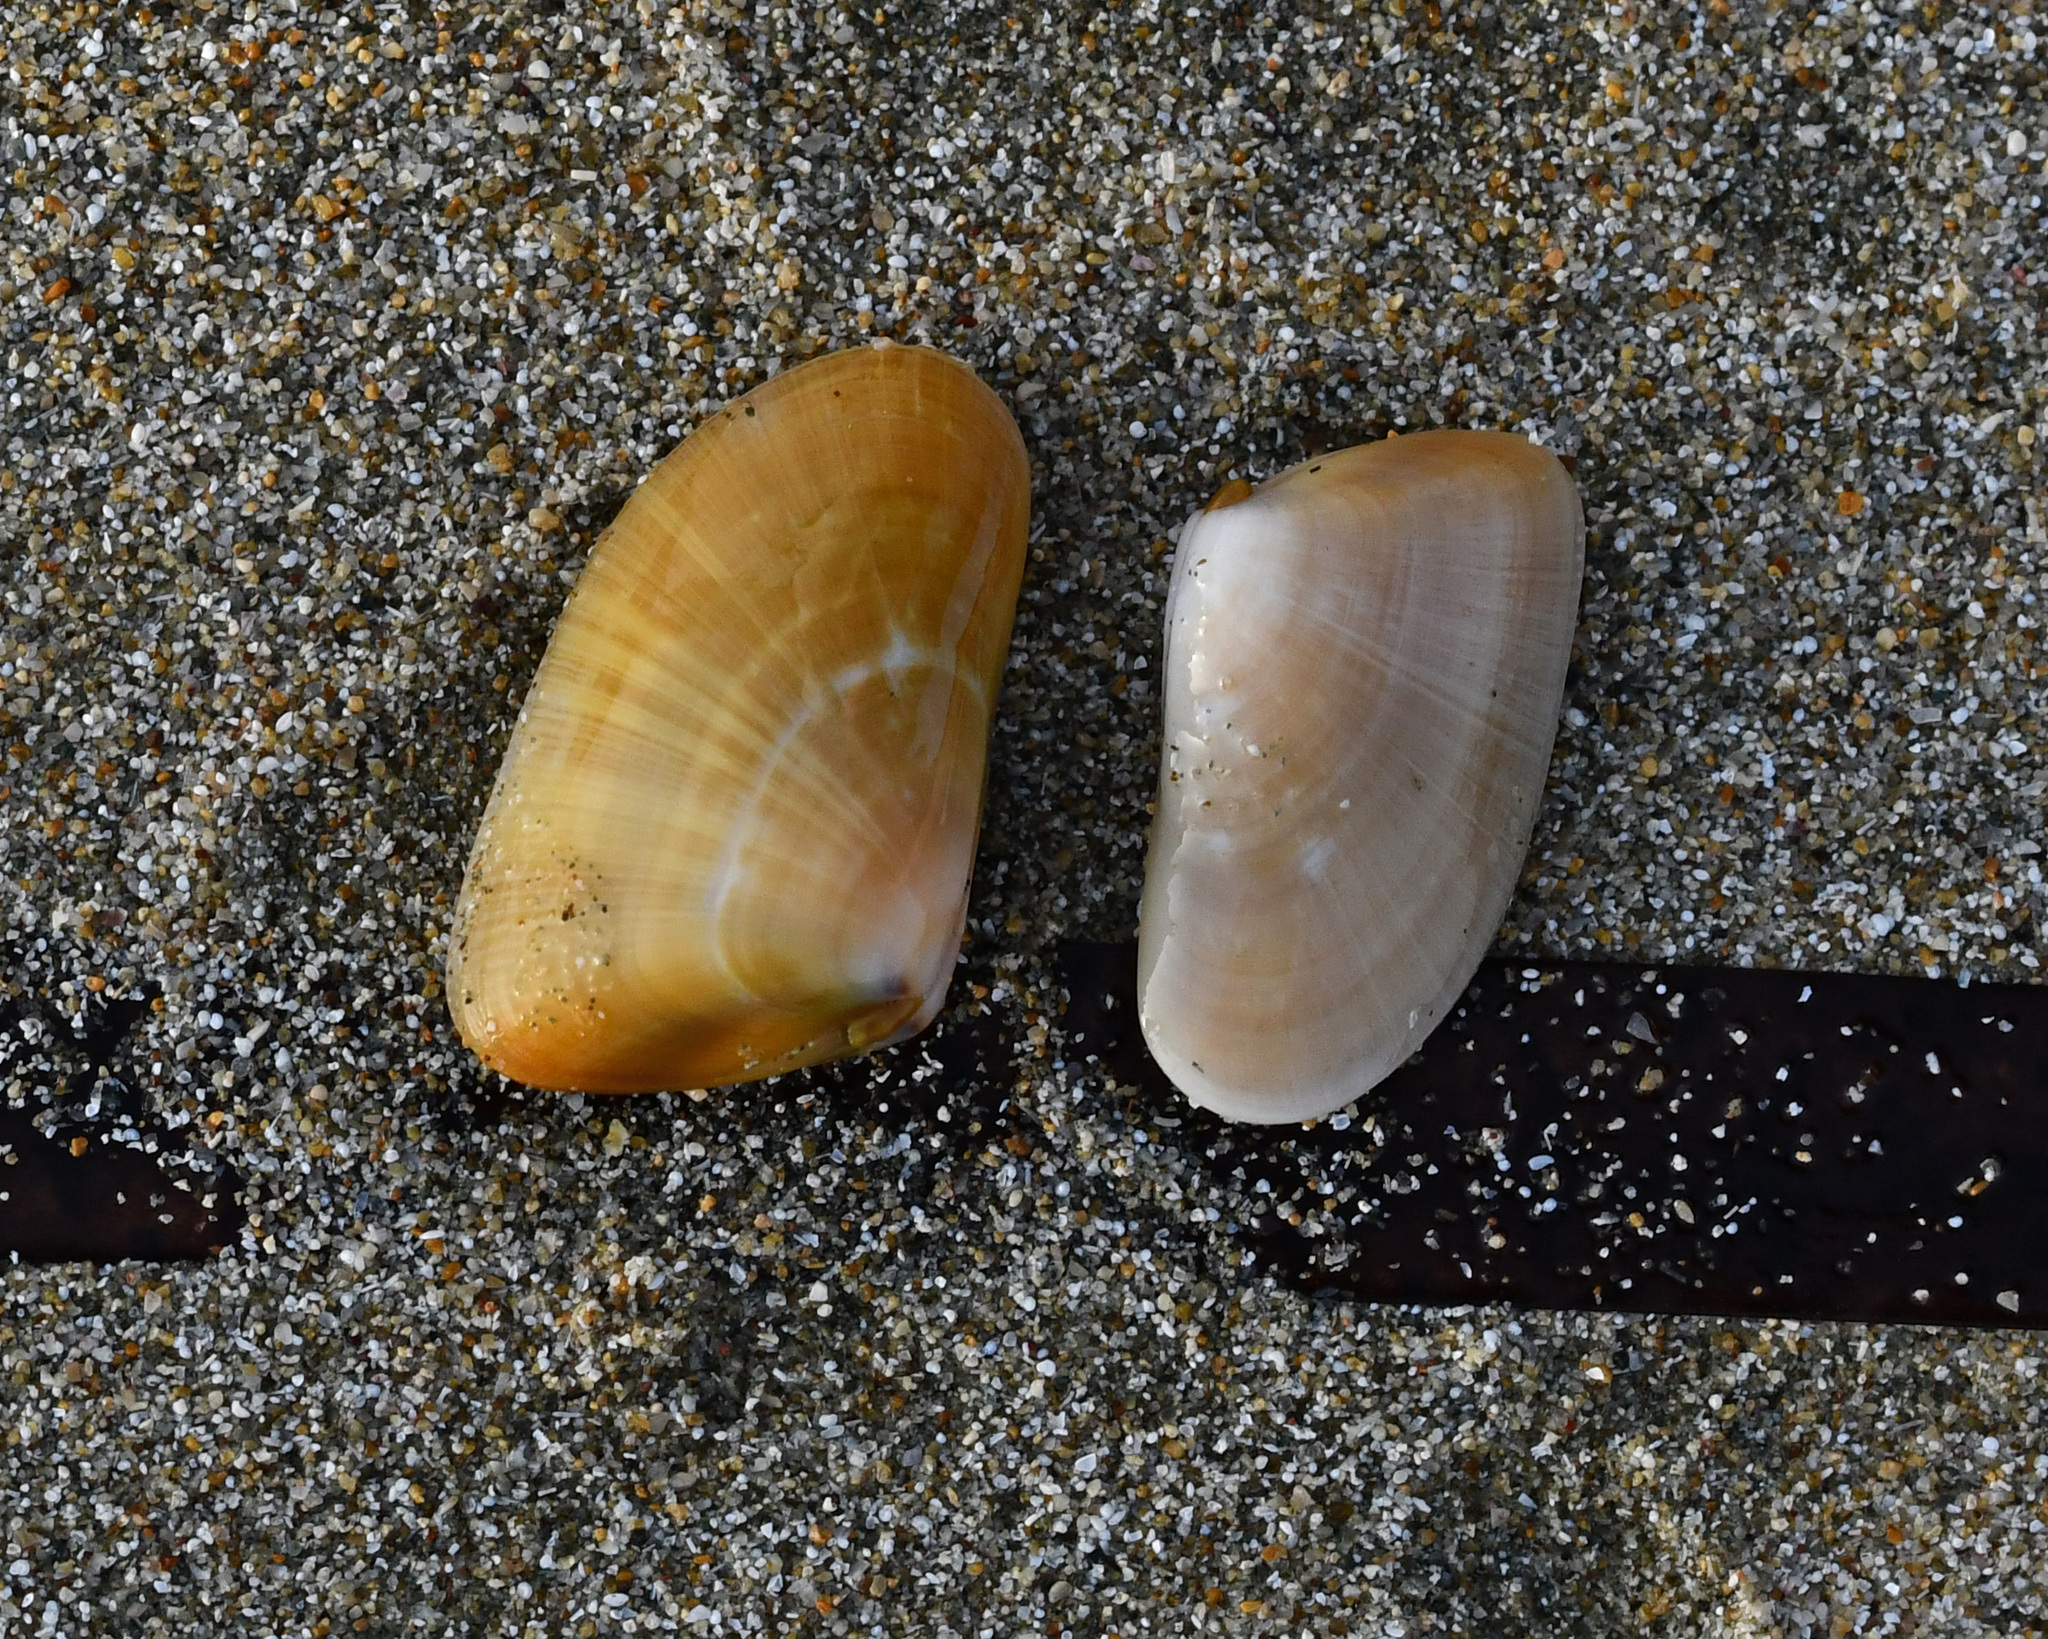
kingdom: Animalia
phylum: Mollusca
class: Bivalvia
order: Cardiida
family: Donacidae
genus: Donax
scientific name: Donax trunculus
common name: Truncate donax
